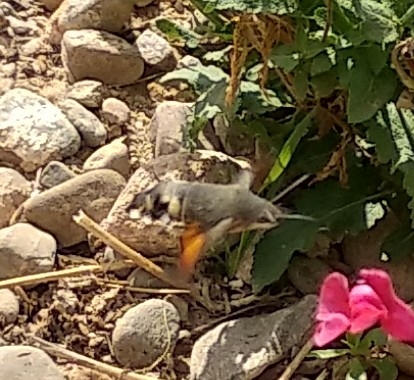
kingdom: Animalia
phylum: Arthropoda
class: Insecta
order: Lepidoptera
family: Sphingidae
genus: Macroglossum
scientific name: Macroglossum stellatarum
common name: Humming-bird hawk-moth
